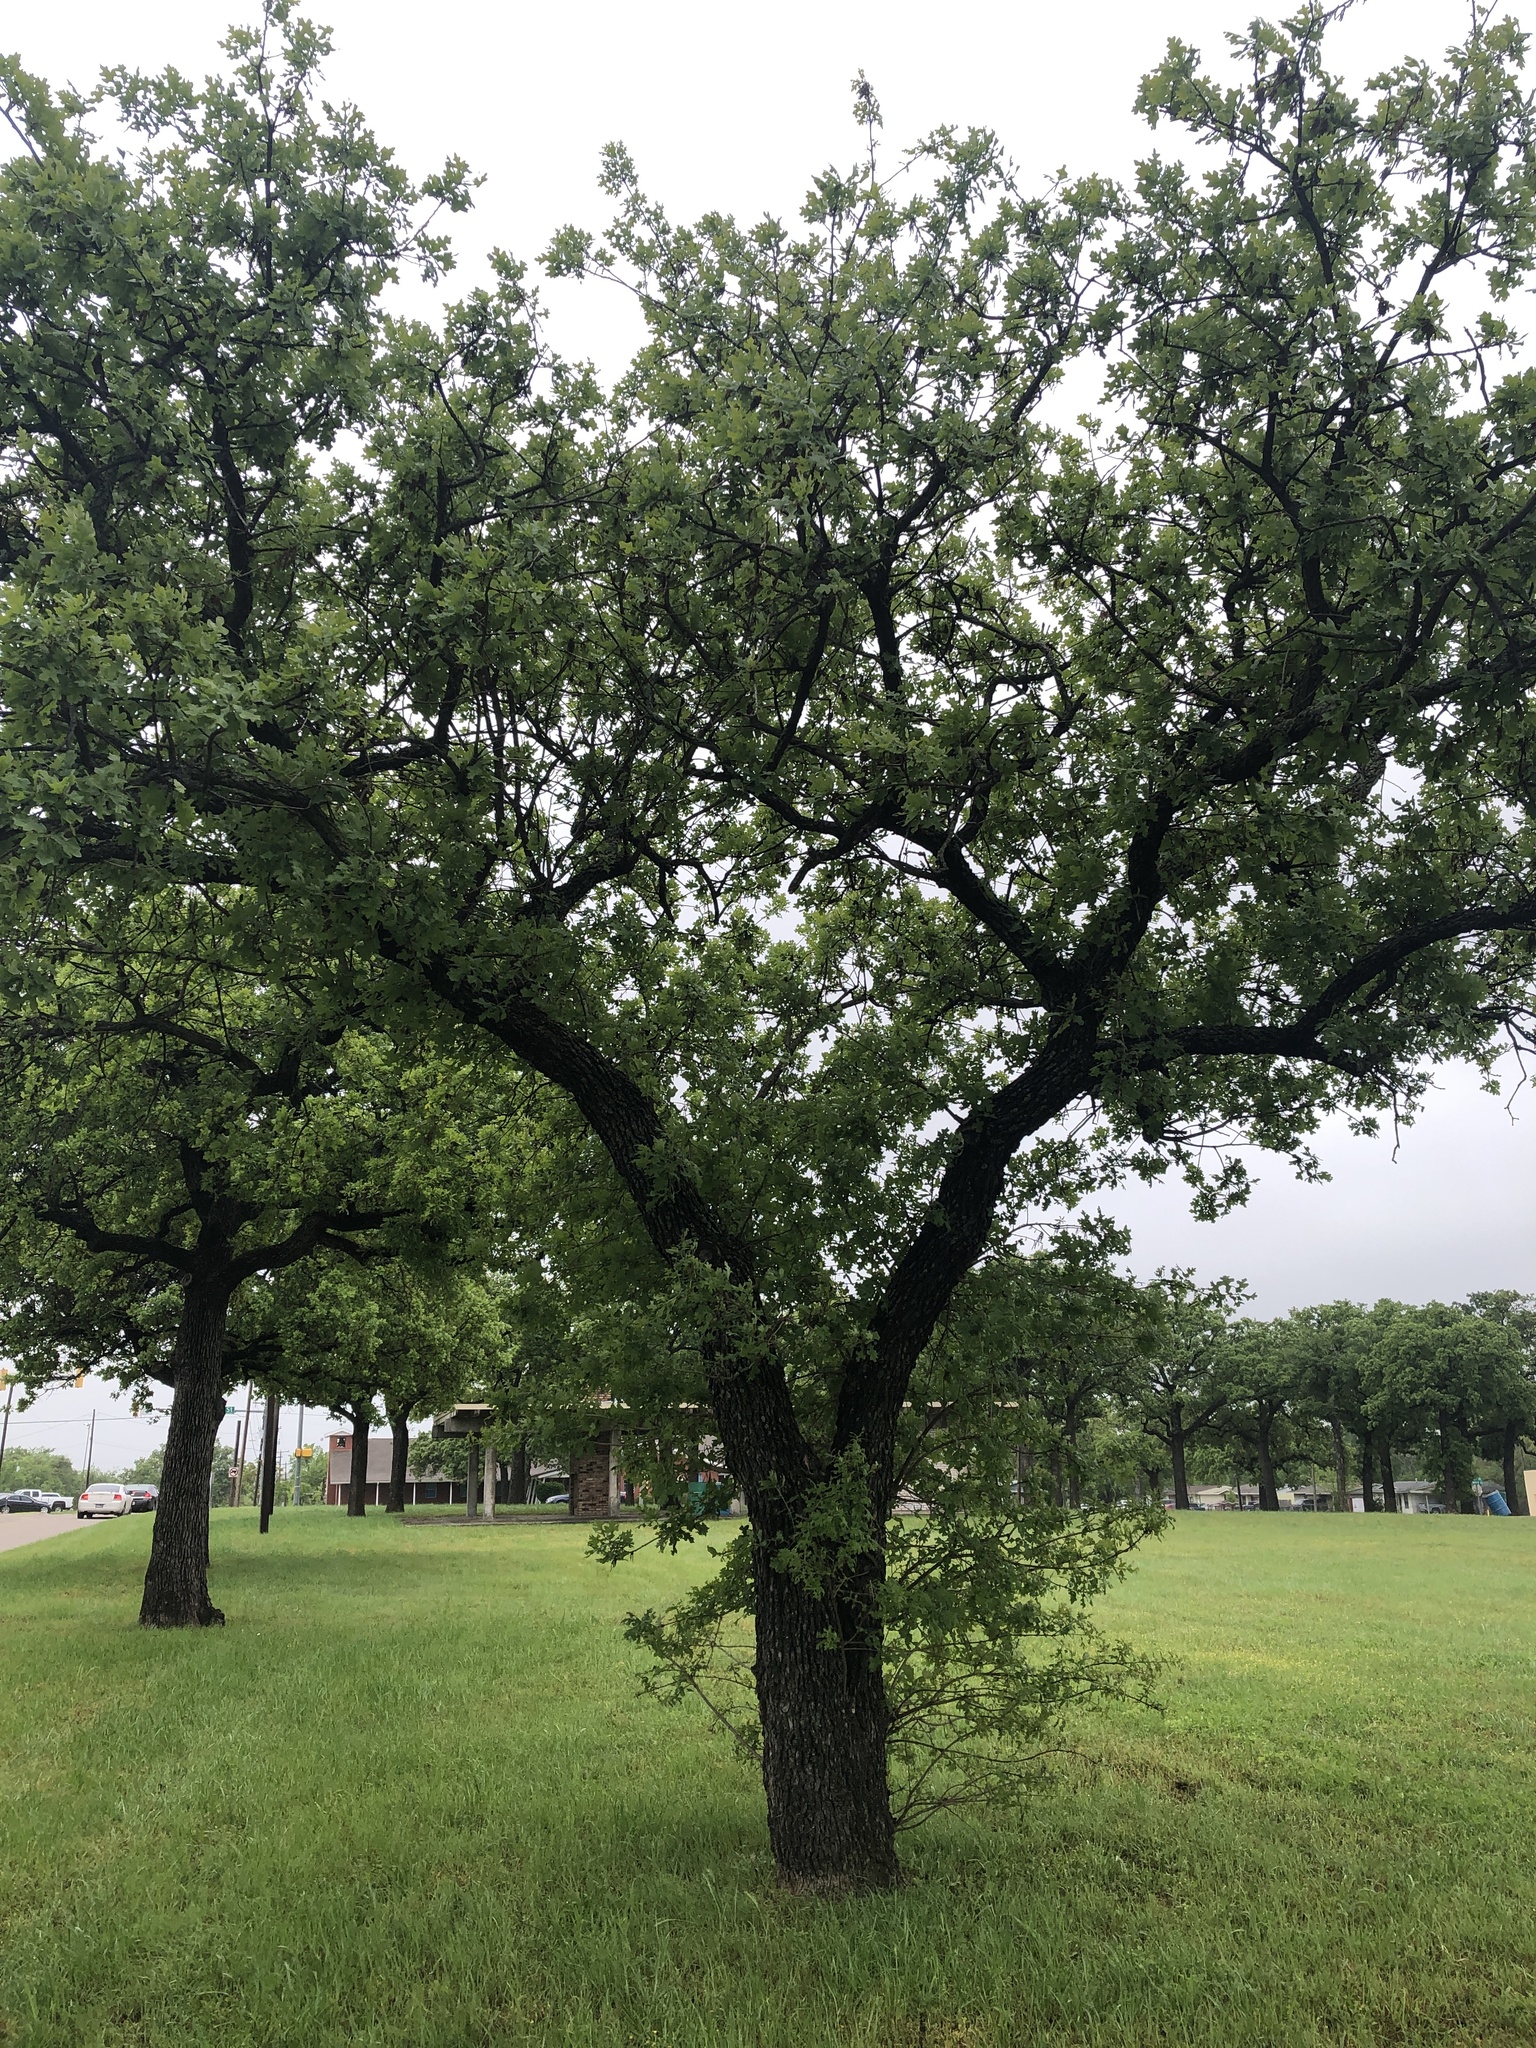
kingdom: Plantae
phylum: Tracheophyta
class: Magnoliopsida
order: Fagales
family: Fagaceae
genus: Quercus
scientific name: Quercus stellata
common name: Post oak
